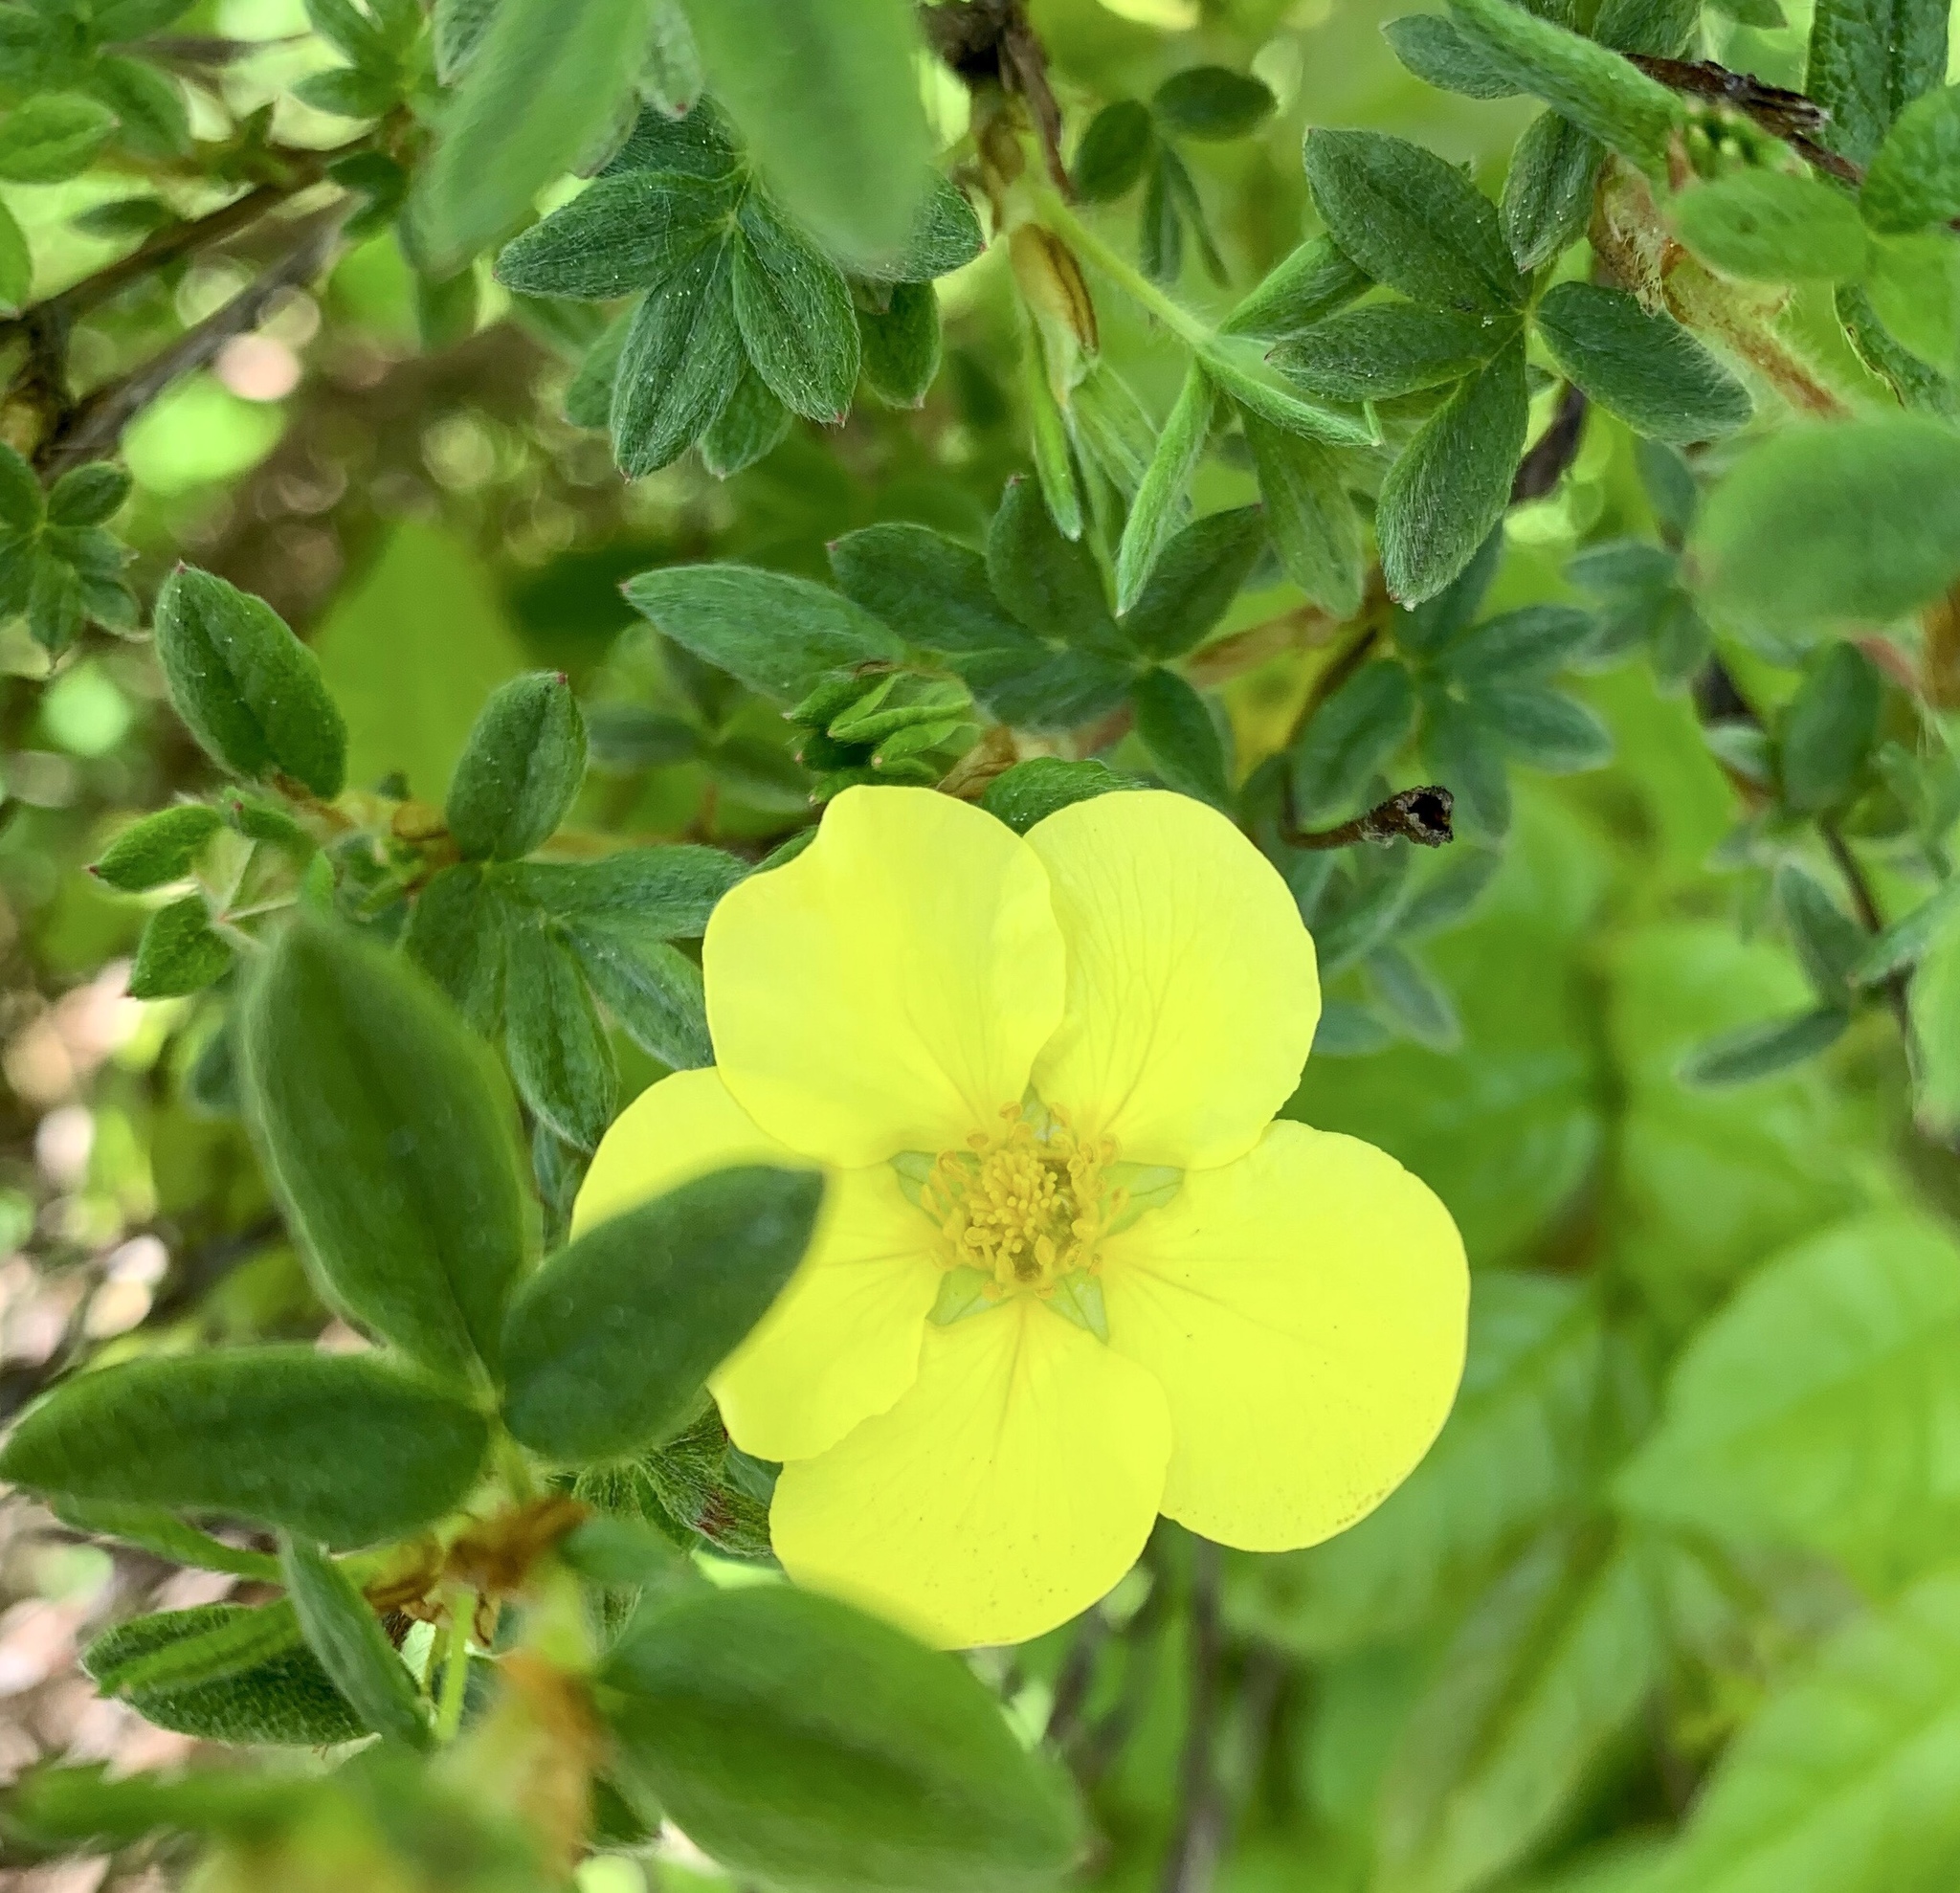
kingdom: Plantae
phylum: Tracheophyta
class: Magnoliopsida
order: Rosales
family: Rosaceae
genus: Dasiphora
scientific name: Dasiphora fruticosa
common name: Shrubby cinquefoil
